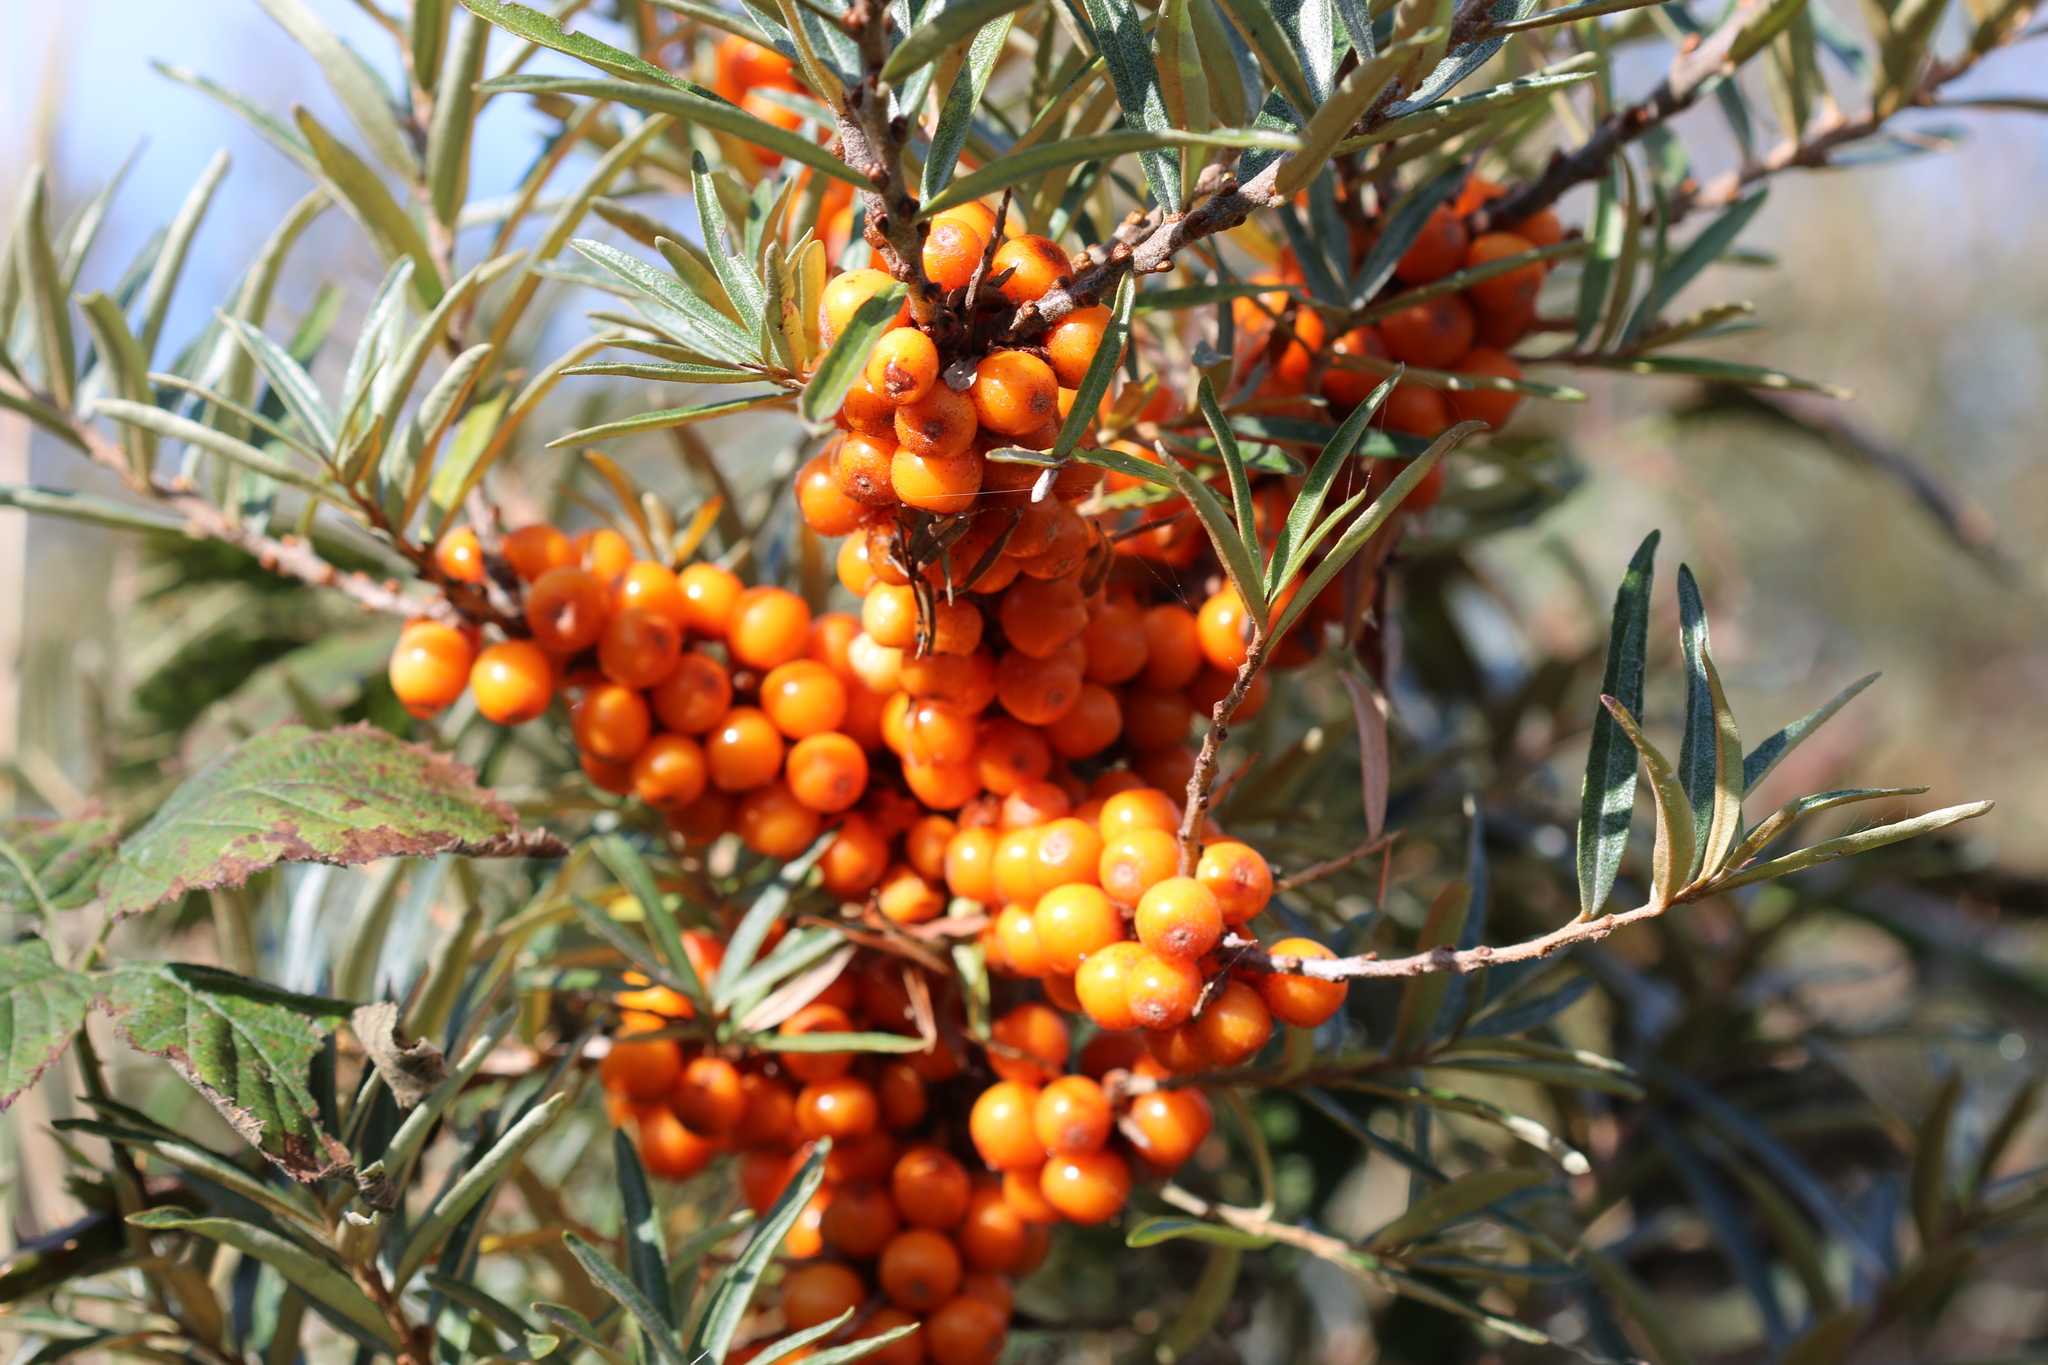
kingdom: Plantae
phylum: Tracheophyta
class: Magnoliopsida
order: Rosales
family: Elaeagnaceae
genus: Hippophae
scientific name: Hippophae rhamnoides
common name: Sea-buckthorn
